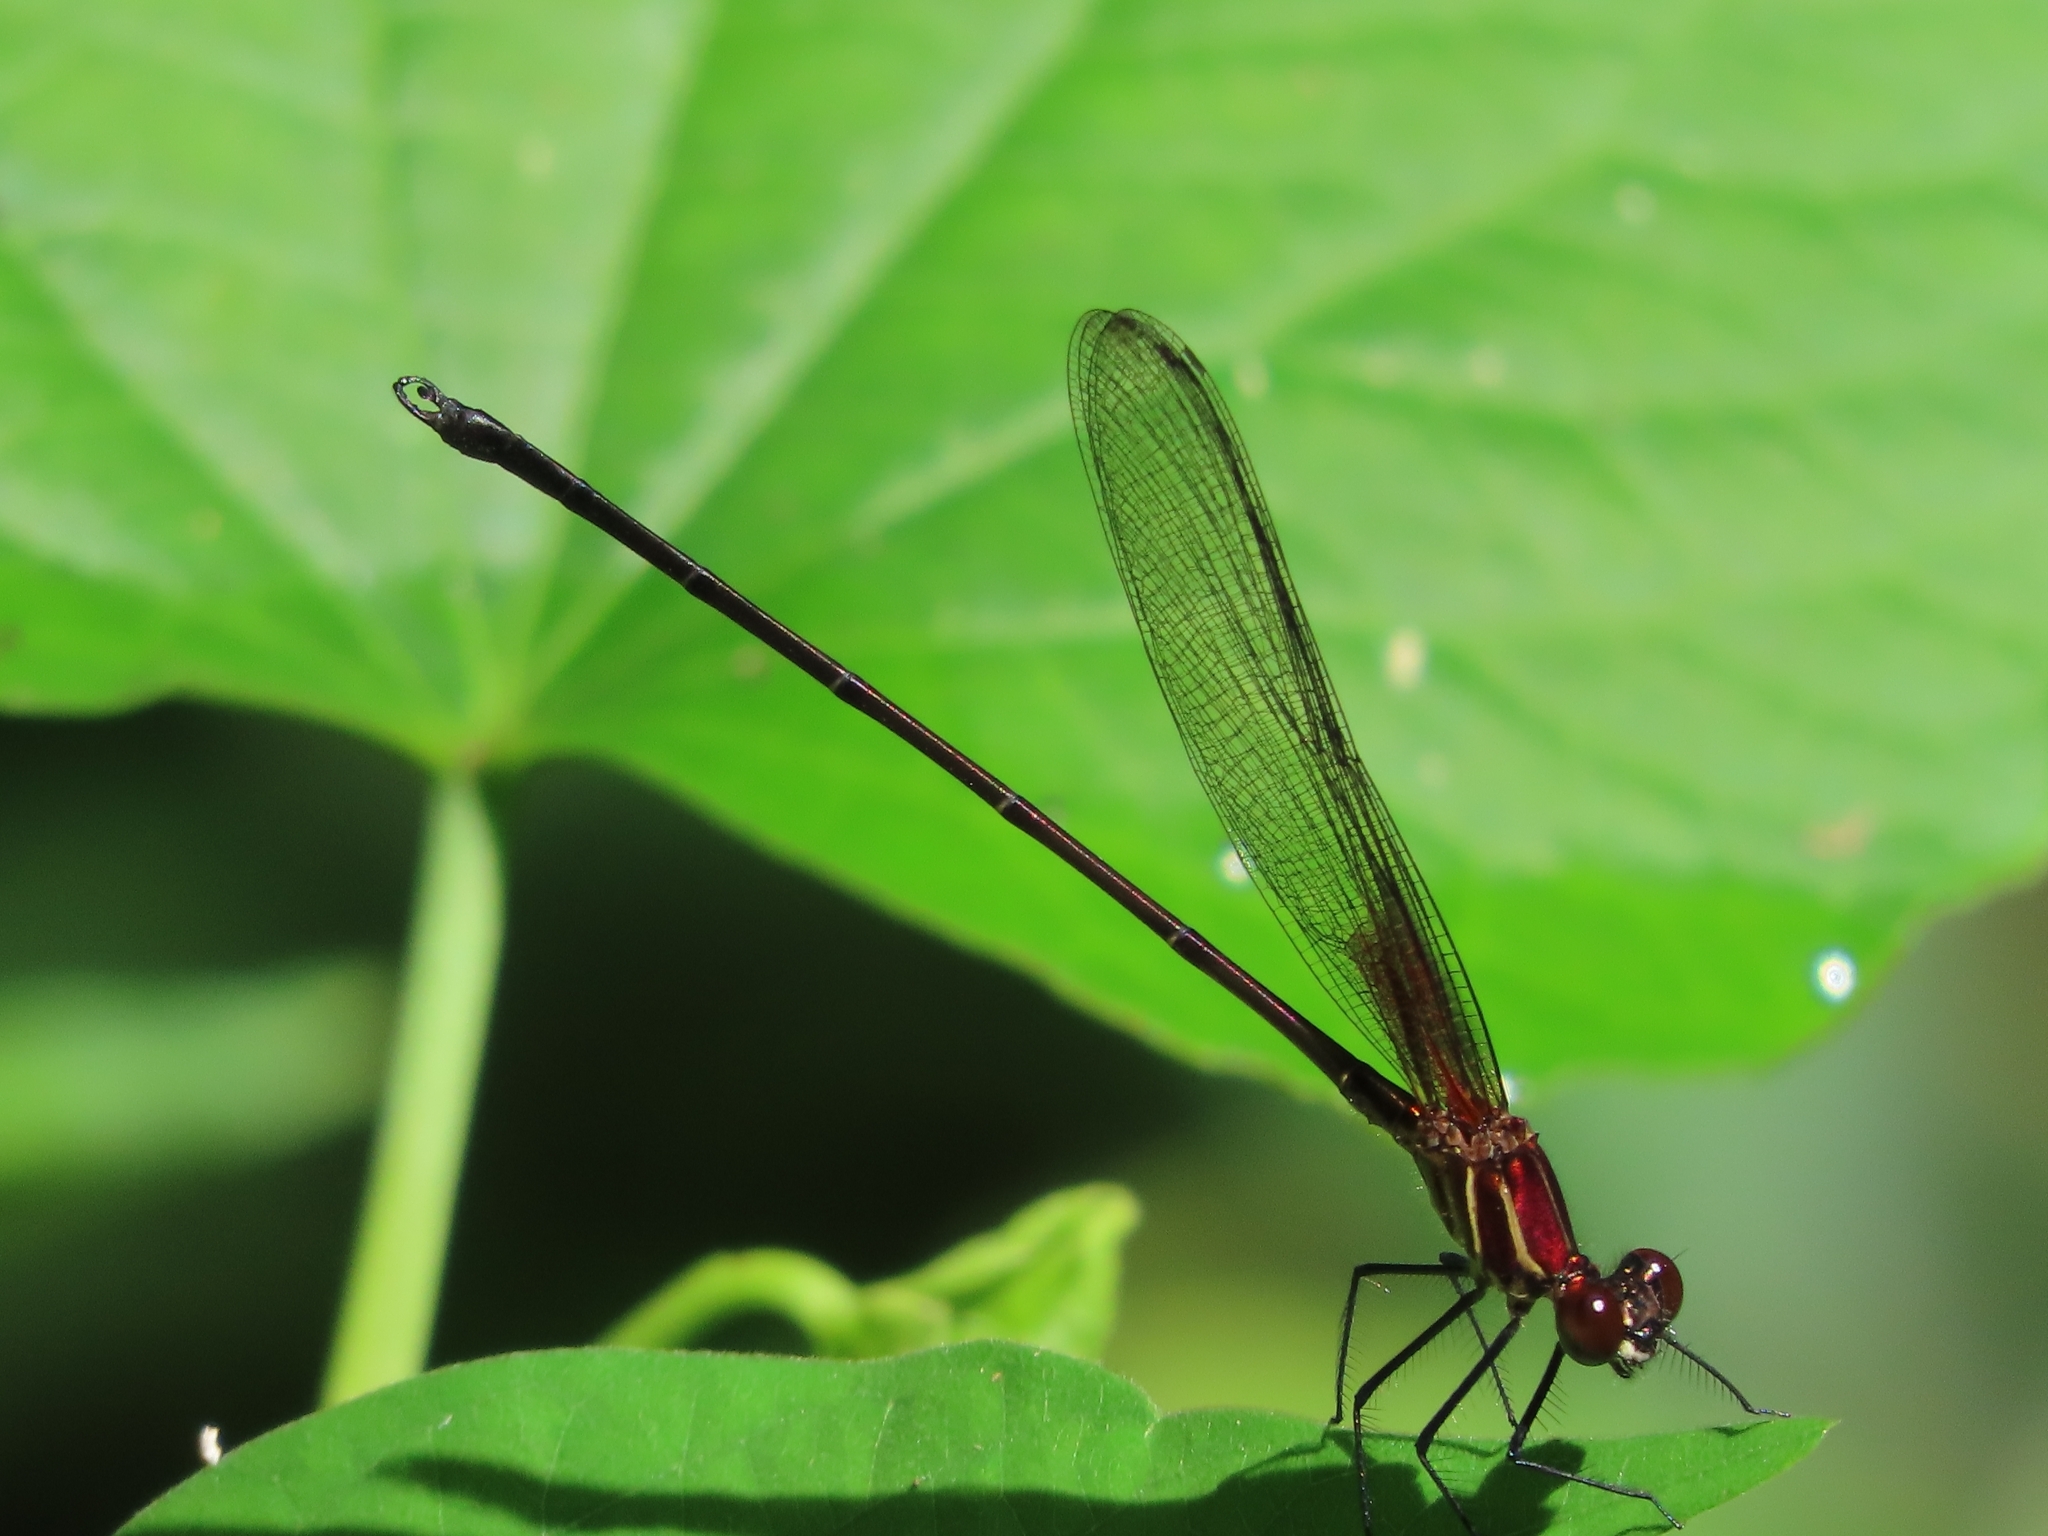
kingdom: Animalia
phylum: Arthropoda
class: Insecta
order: Odonata
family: Calopterygidae
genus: Hetaerina
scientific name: Hetaerina occisa
